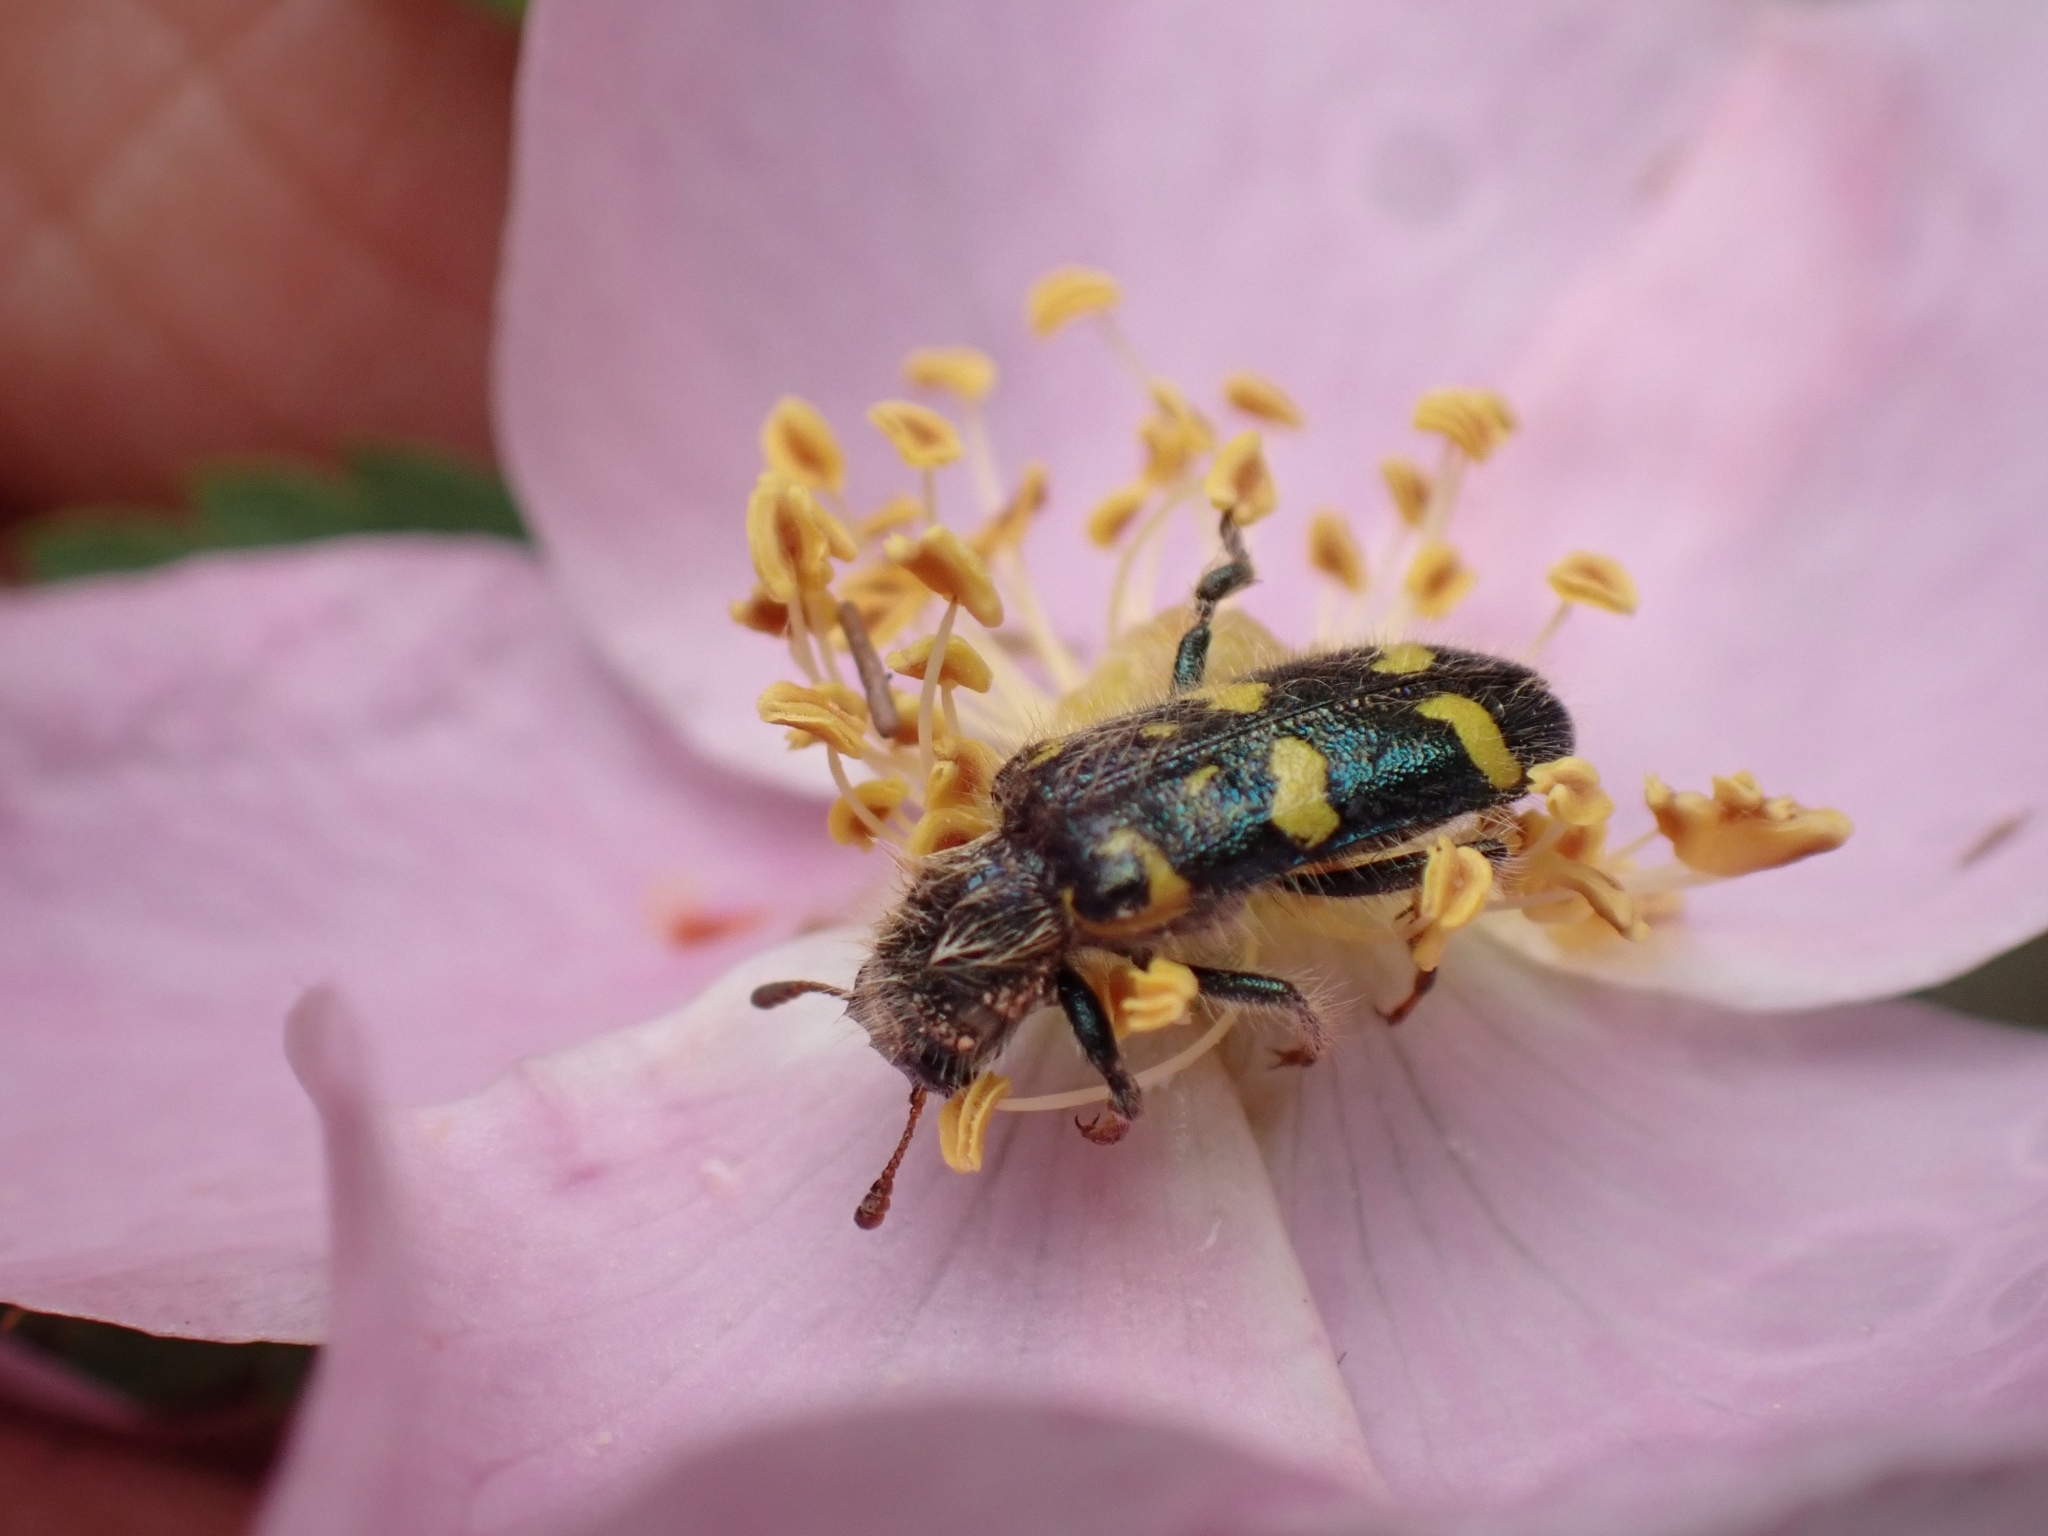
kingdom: Animalia
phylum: Arthropoda
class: Insecta
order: Coleoptera
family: Cleridae
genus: Trichodes
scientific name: Trichodes ornatus
